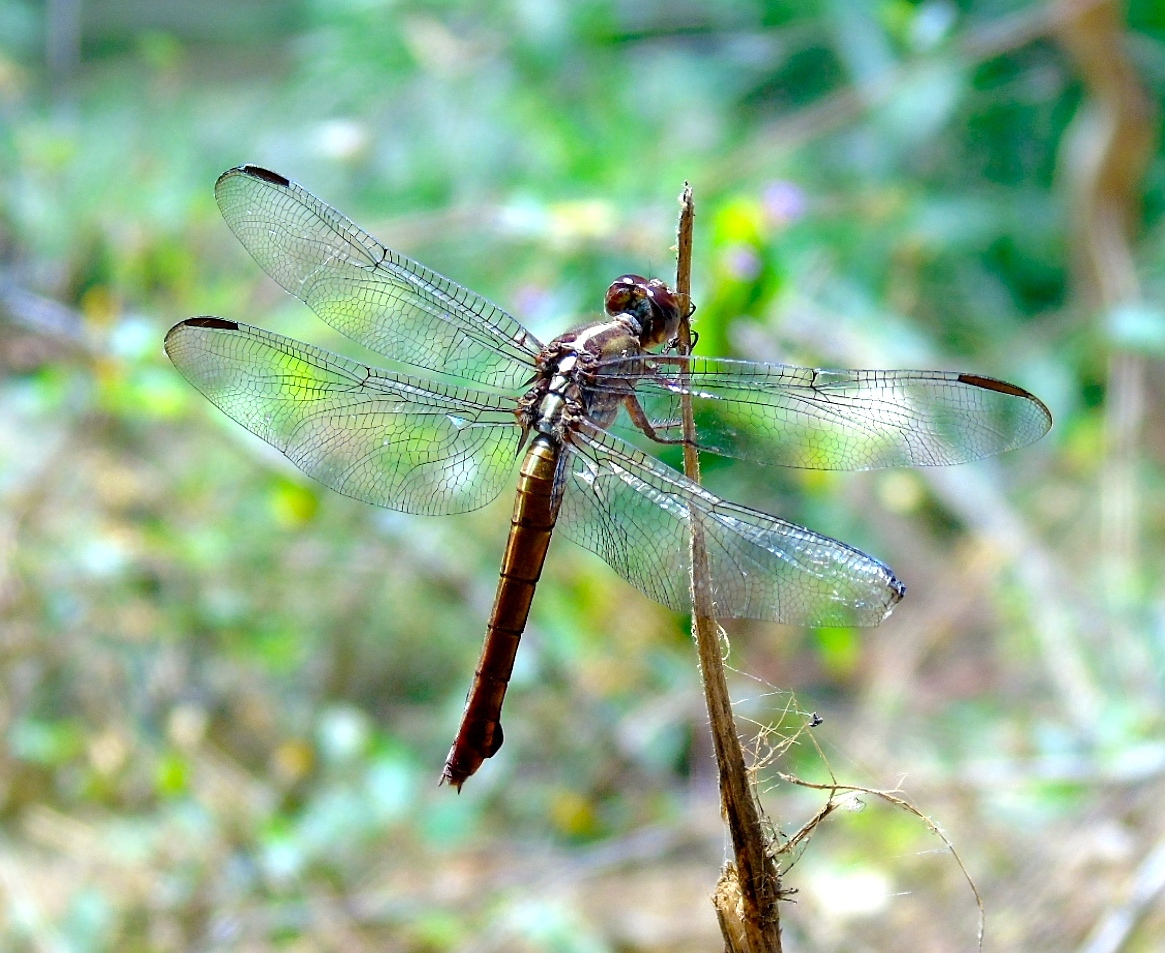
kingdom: Animalia
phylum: Arthropoda
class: Insecta
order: Odonata
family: Libellulidae
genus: Orthemis
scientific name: Orthemis ferruginea
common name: Roseate skimmer
